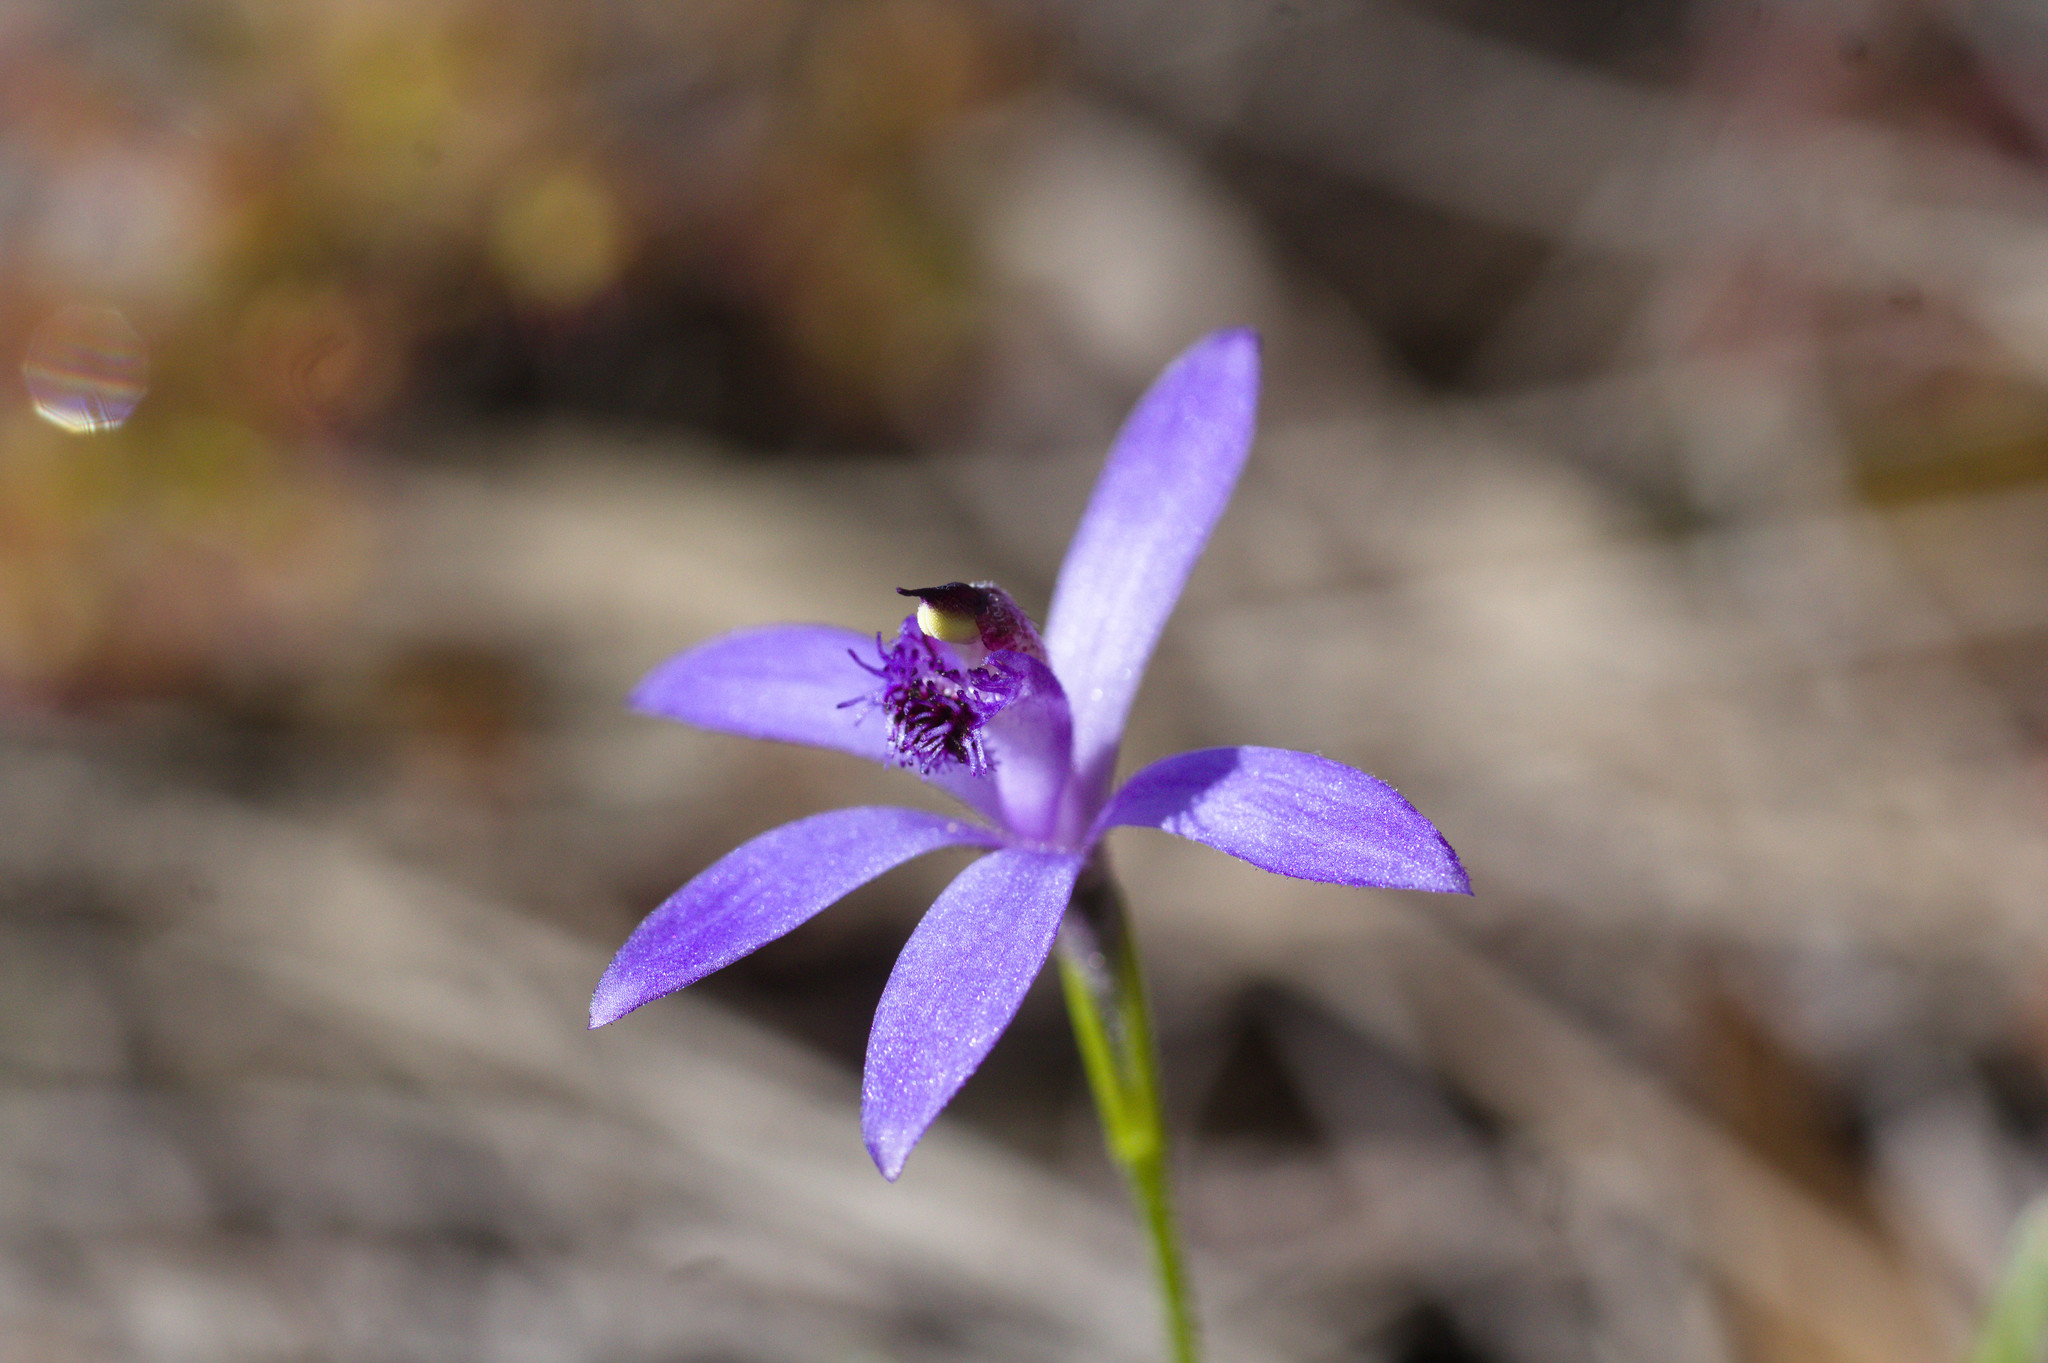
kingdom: Plantae
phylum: Tracheophyta
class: Liliopsida
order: Asparagales
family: Orchidaceae
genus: Pheladenia
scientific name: Pheladenia deformis
